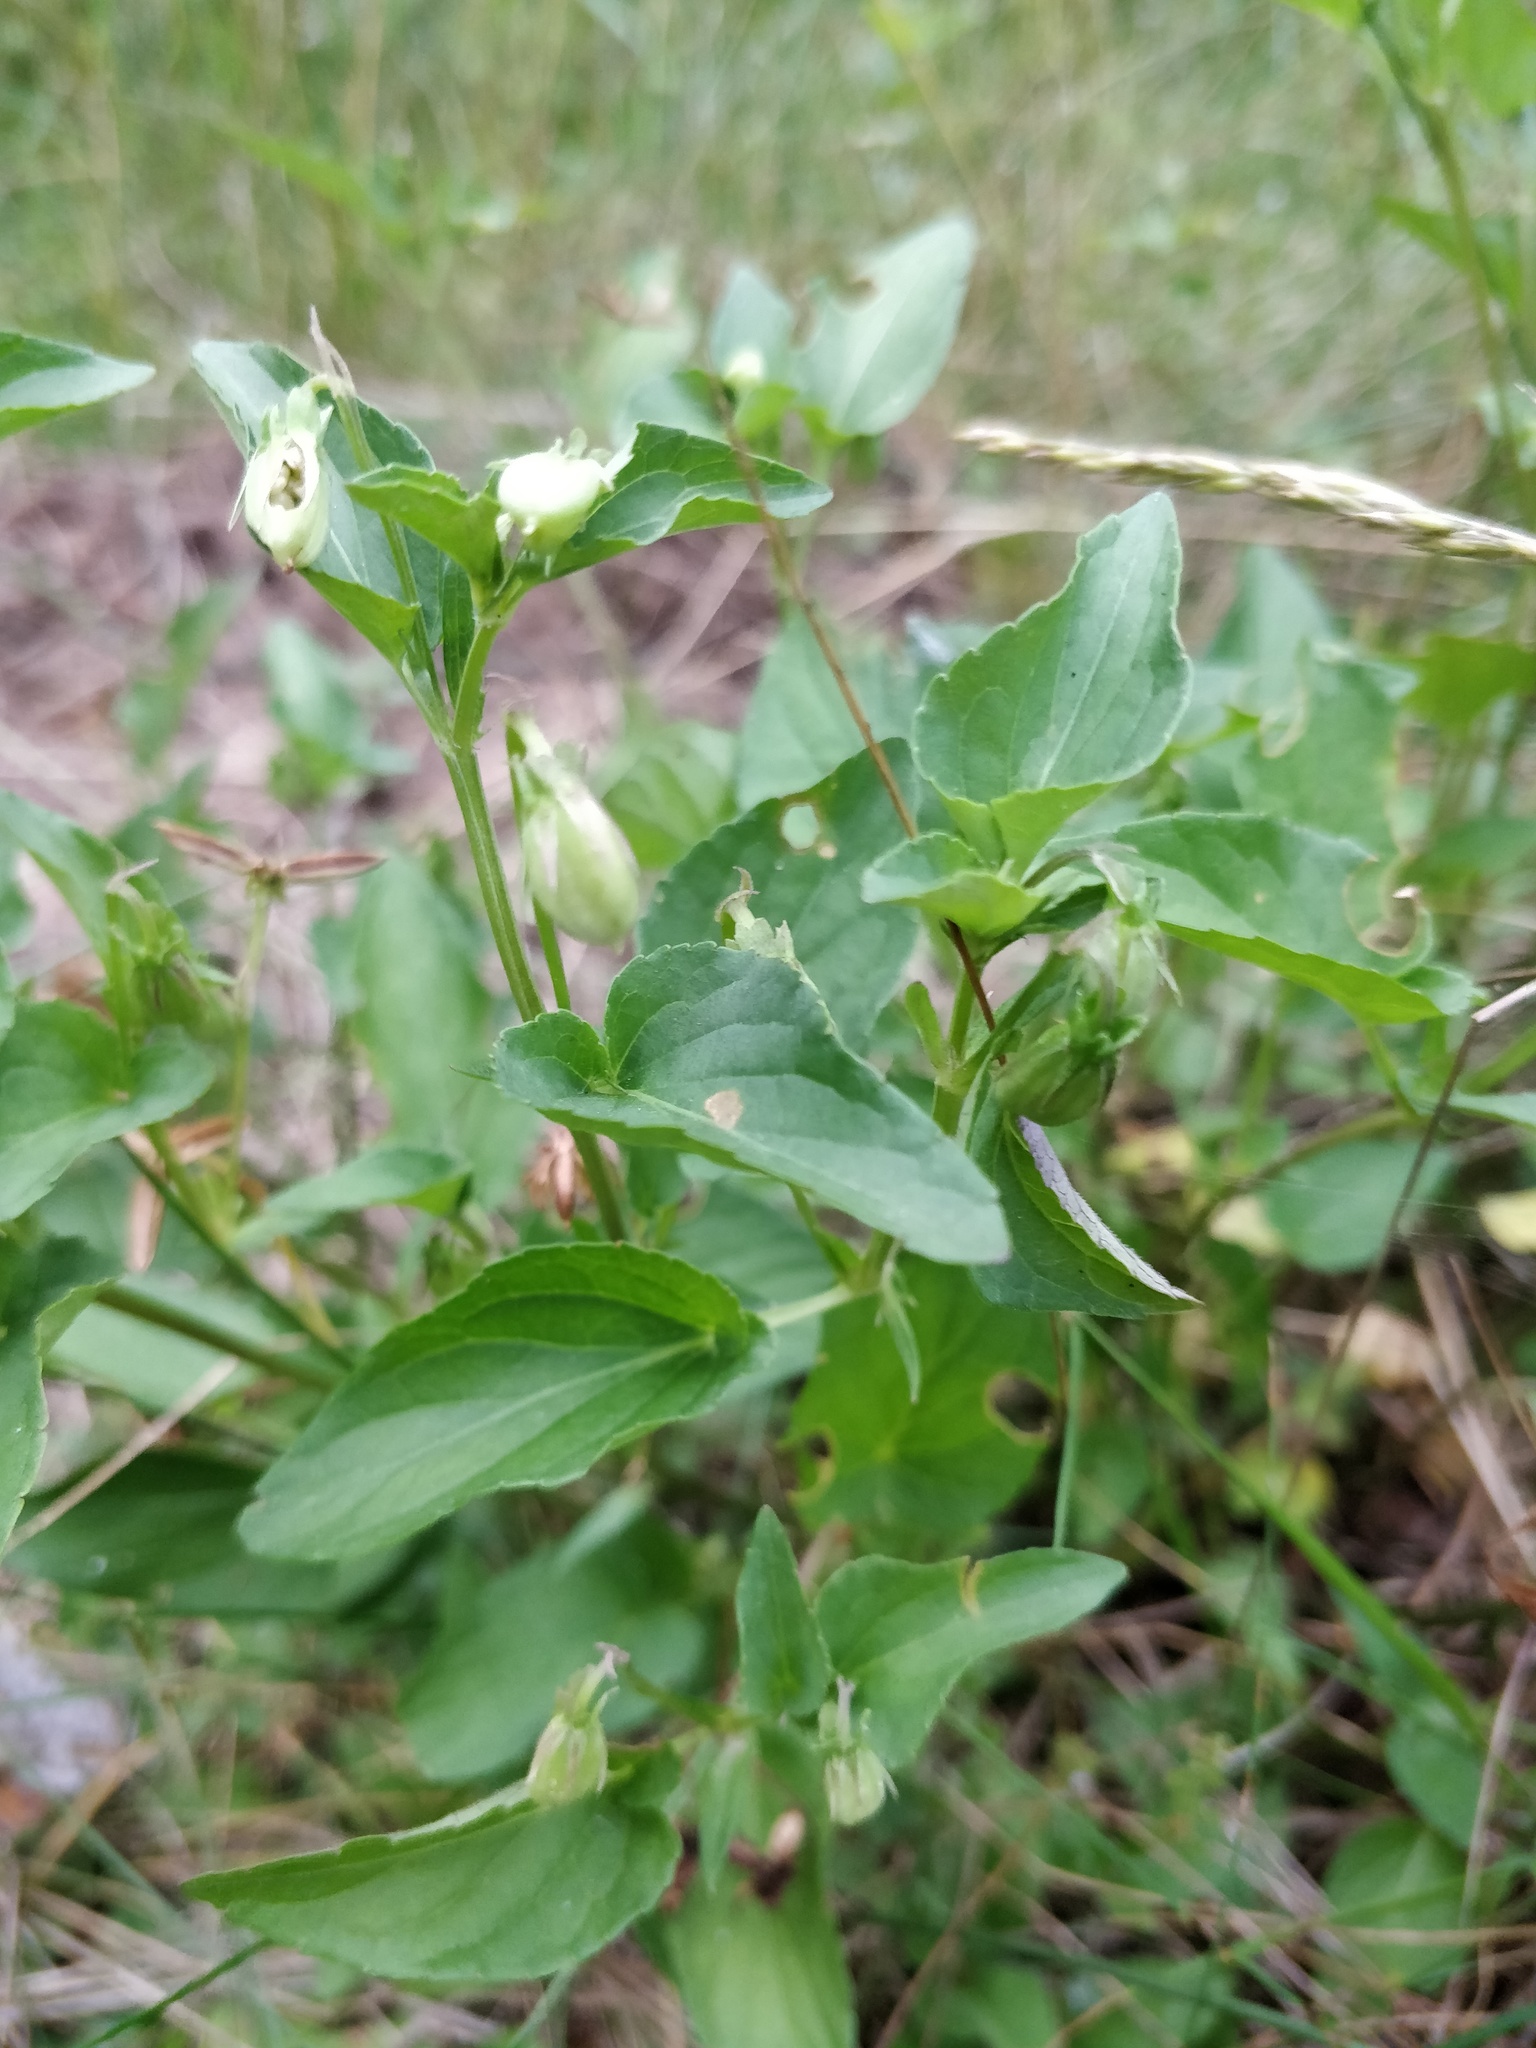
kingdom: Plantae
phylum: Tracheophyta
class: Magnoliopsida
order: Malpighiales
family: Violaceae
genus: Viola
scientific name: Viola canina
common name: Heath dog-violet
